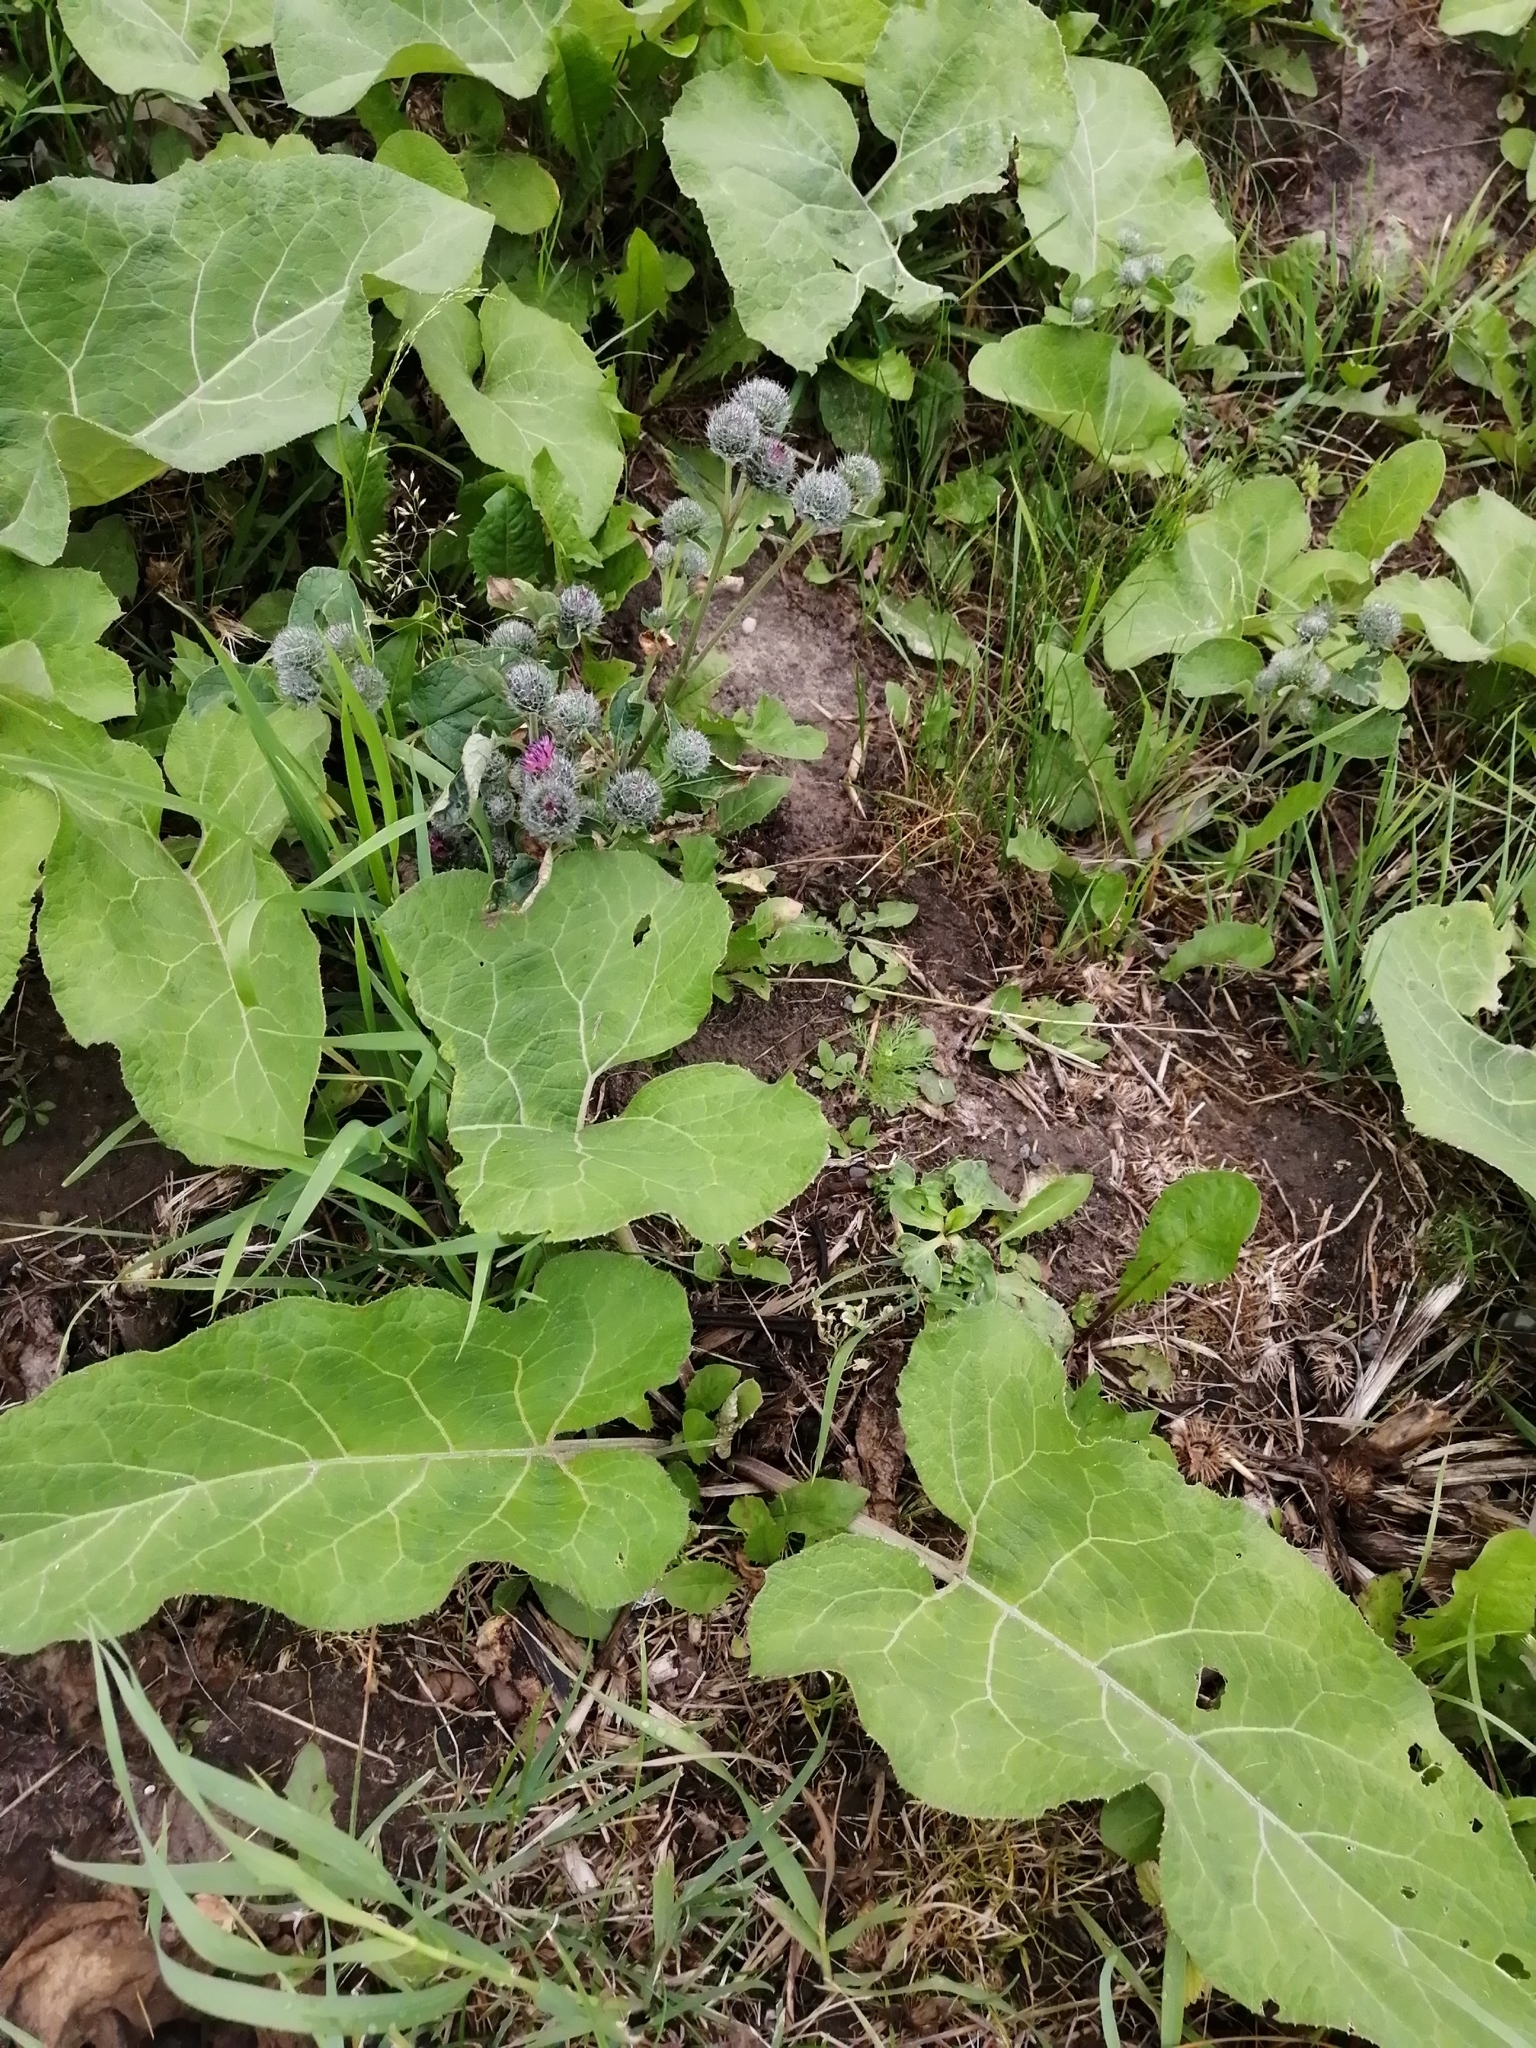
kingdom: Plantae
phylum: Tracheophyta
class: Magnoliopsida
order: Asterales
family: Asteraceae
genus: Arctium
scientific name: Arctium tomentosum
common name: Woolly burdock
